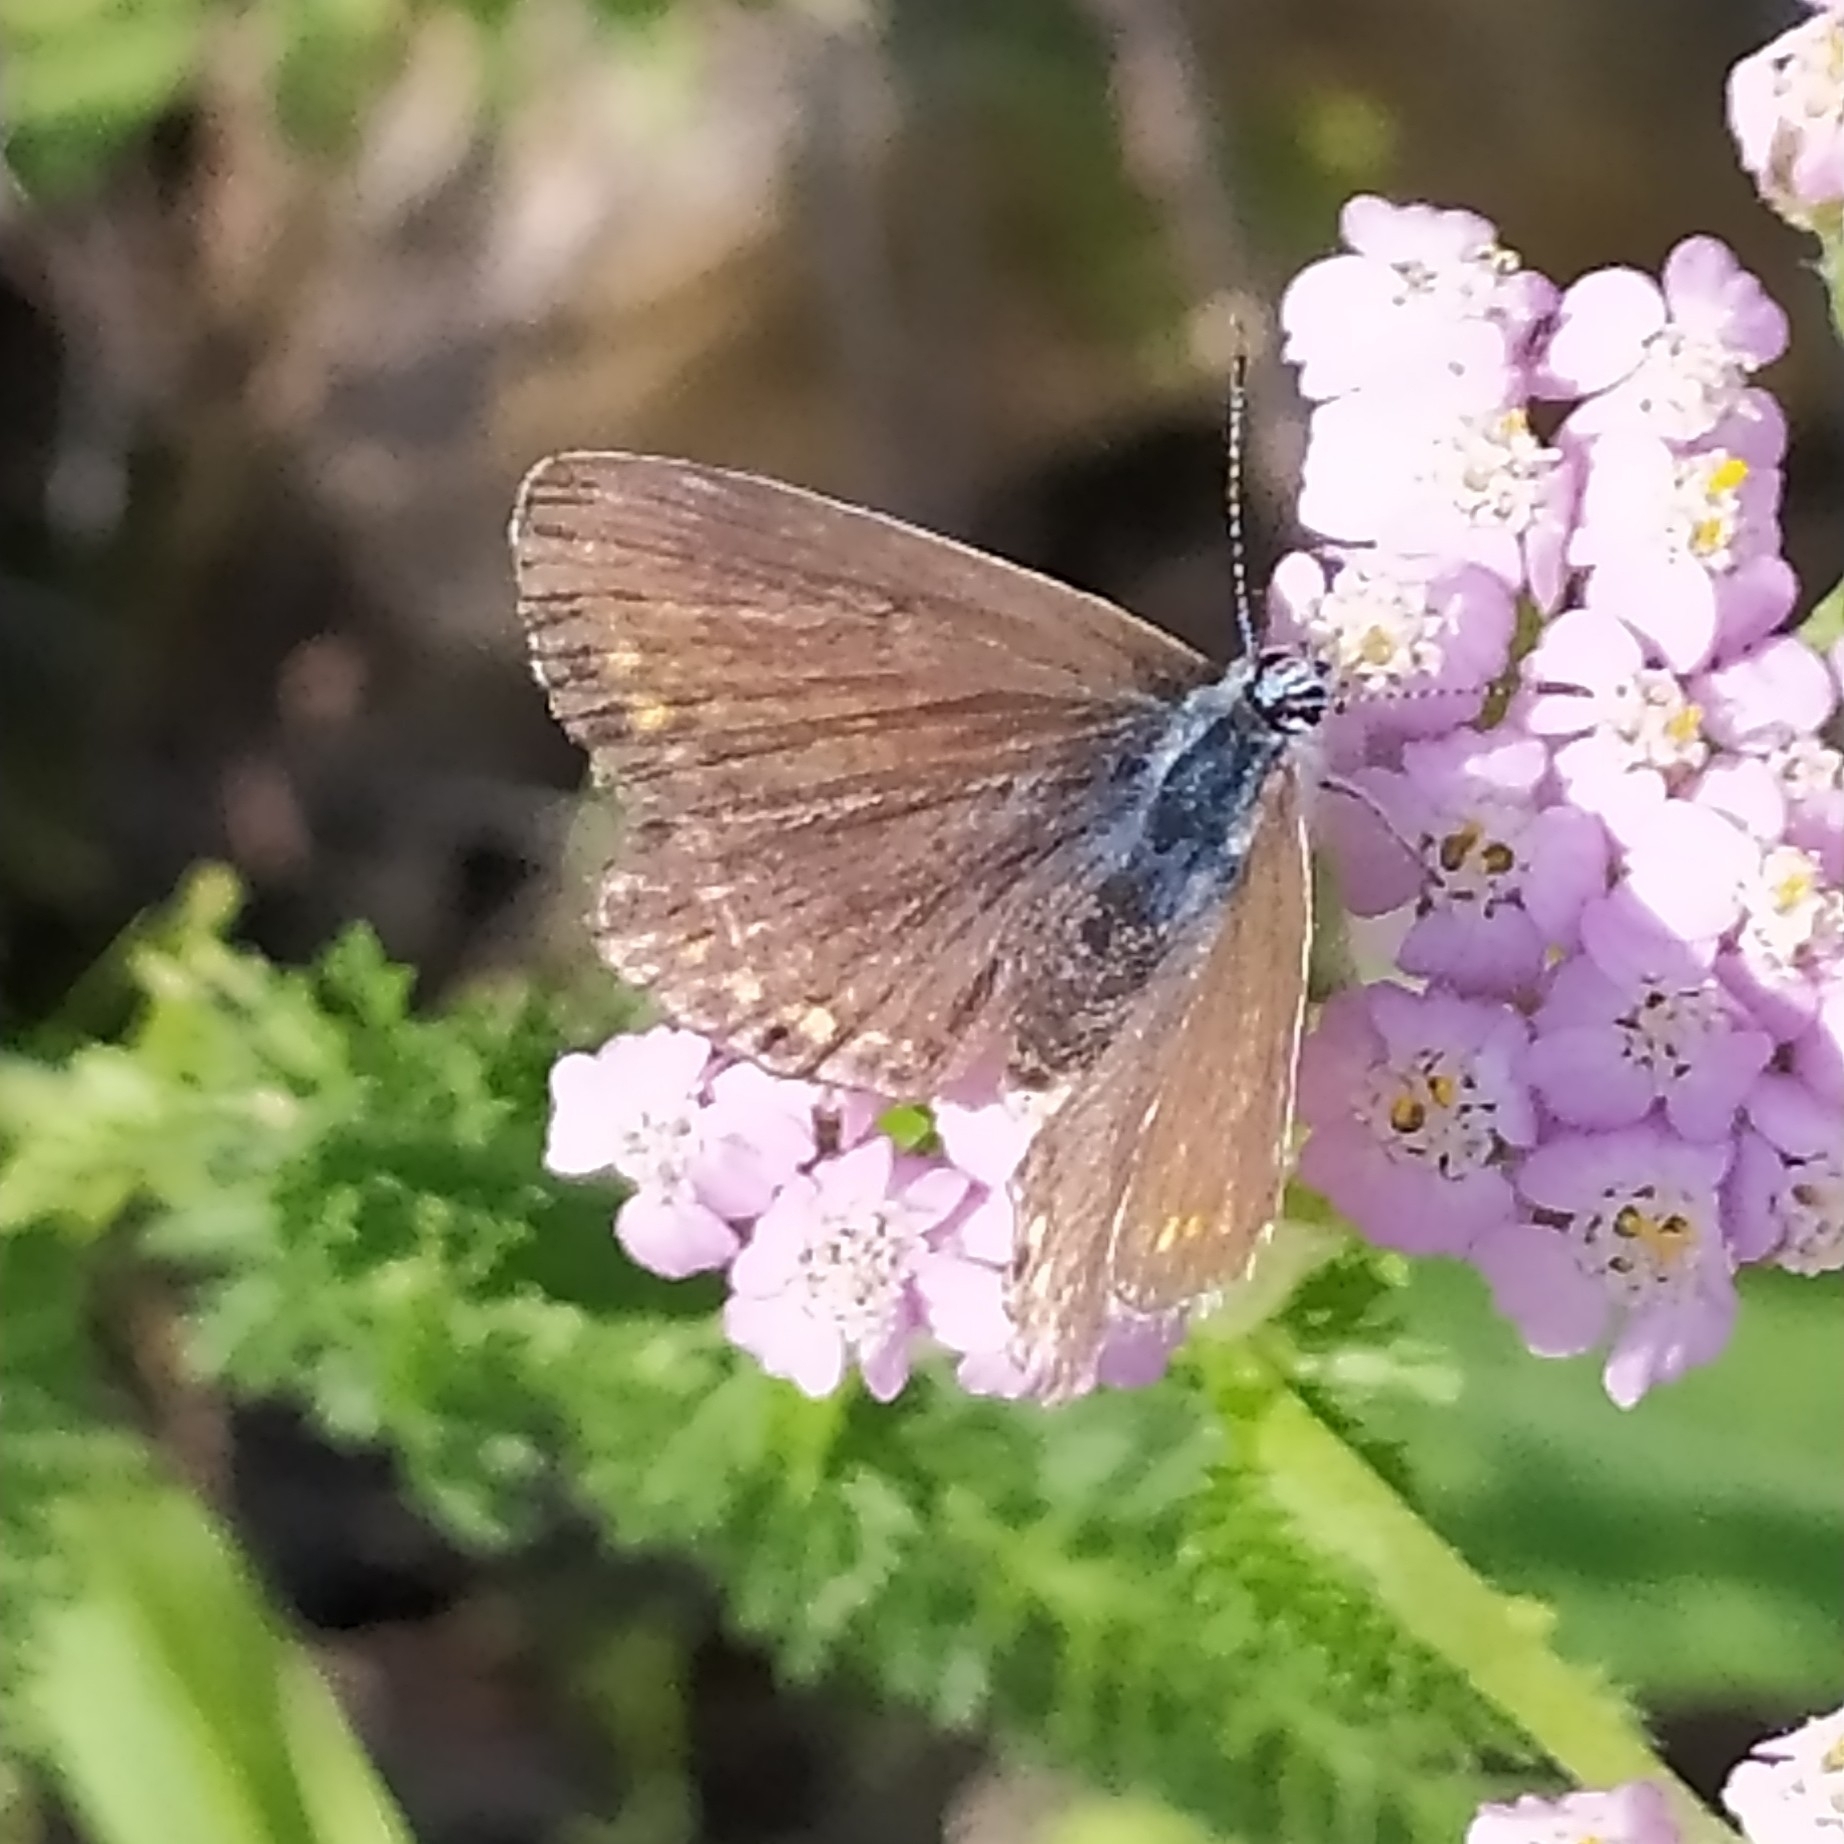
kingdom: Animalia
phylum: Arthropoda
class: Insecta
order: Lepidoptera
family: Lycaenidae
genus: Polyommatus
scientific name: Polyommatus icarus
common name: Common blue
